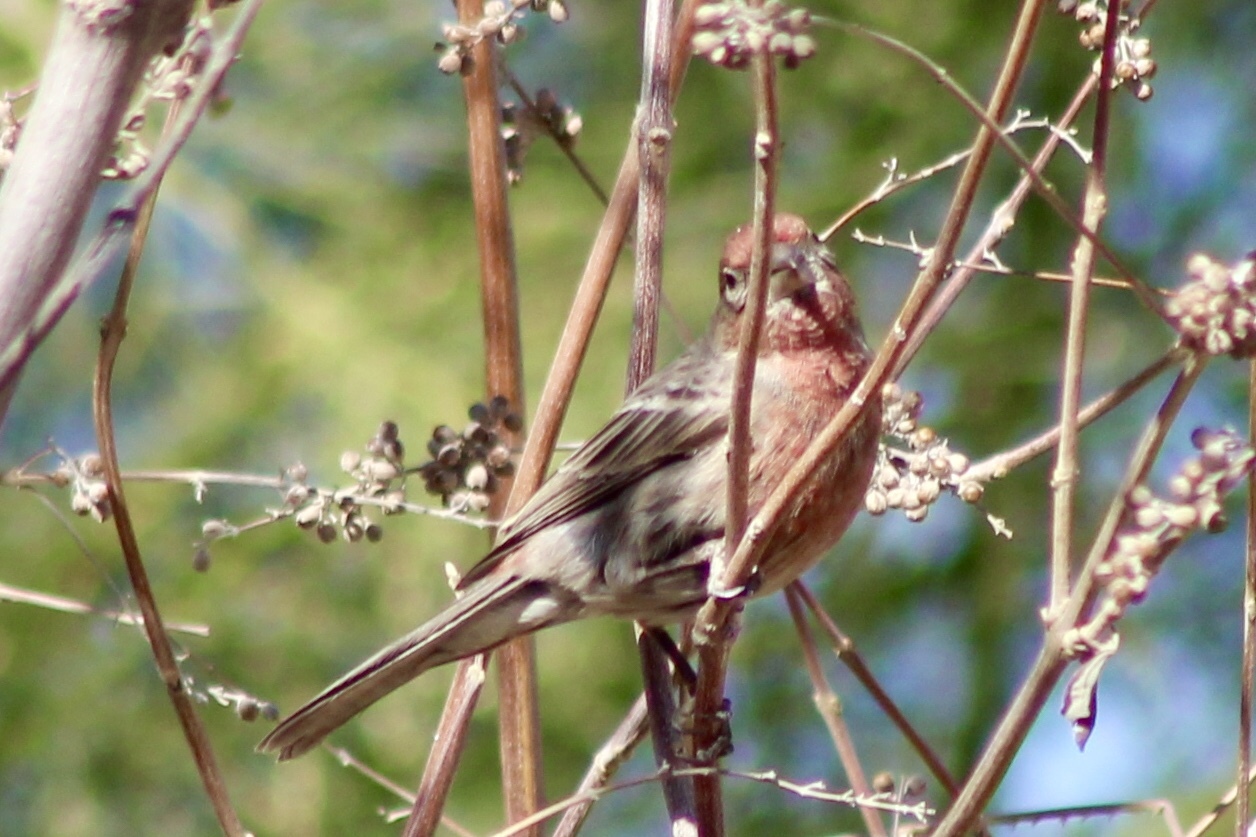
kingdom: Animalia
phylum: Chordata
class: Aves
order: Passeriformes
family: Fringillidae
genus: Haemorhous
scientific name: Haemorhous mexicanus
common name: House finch
